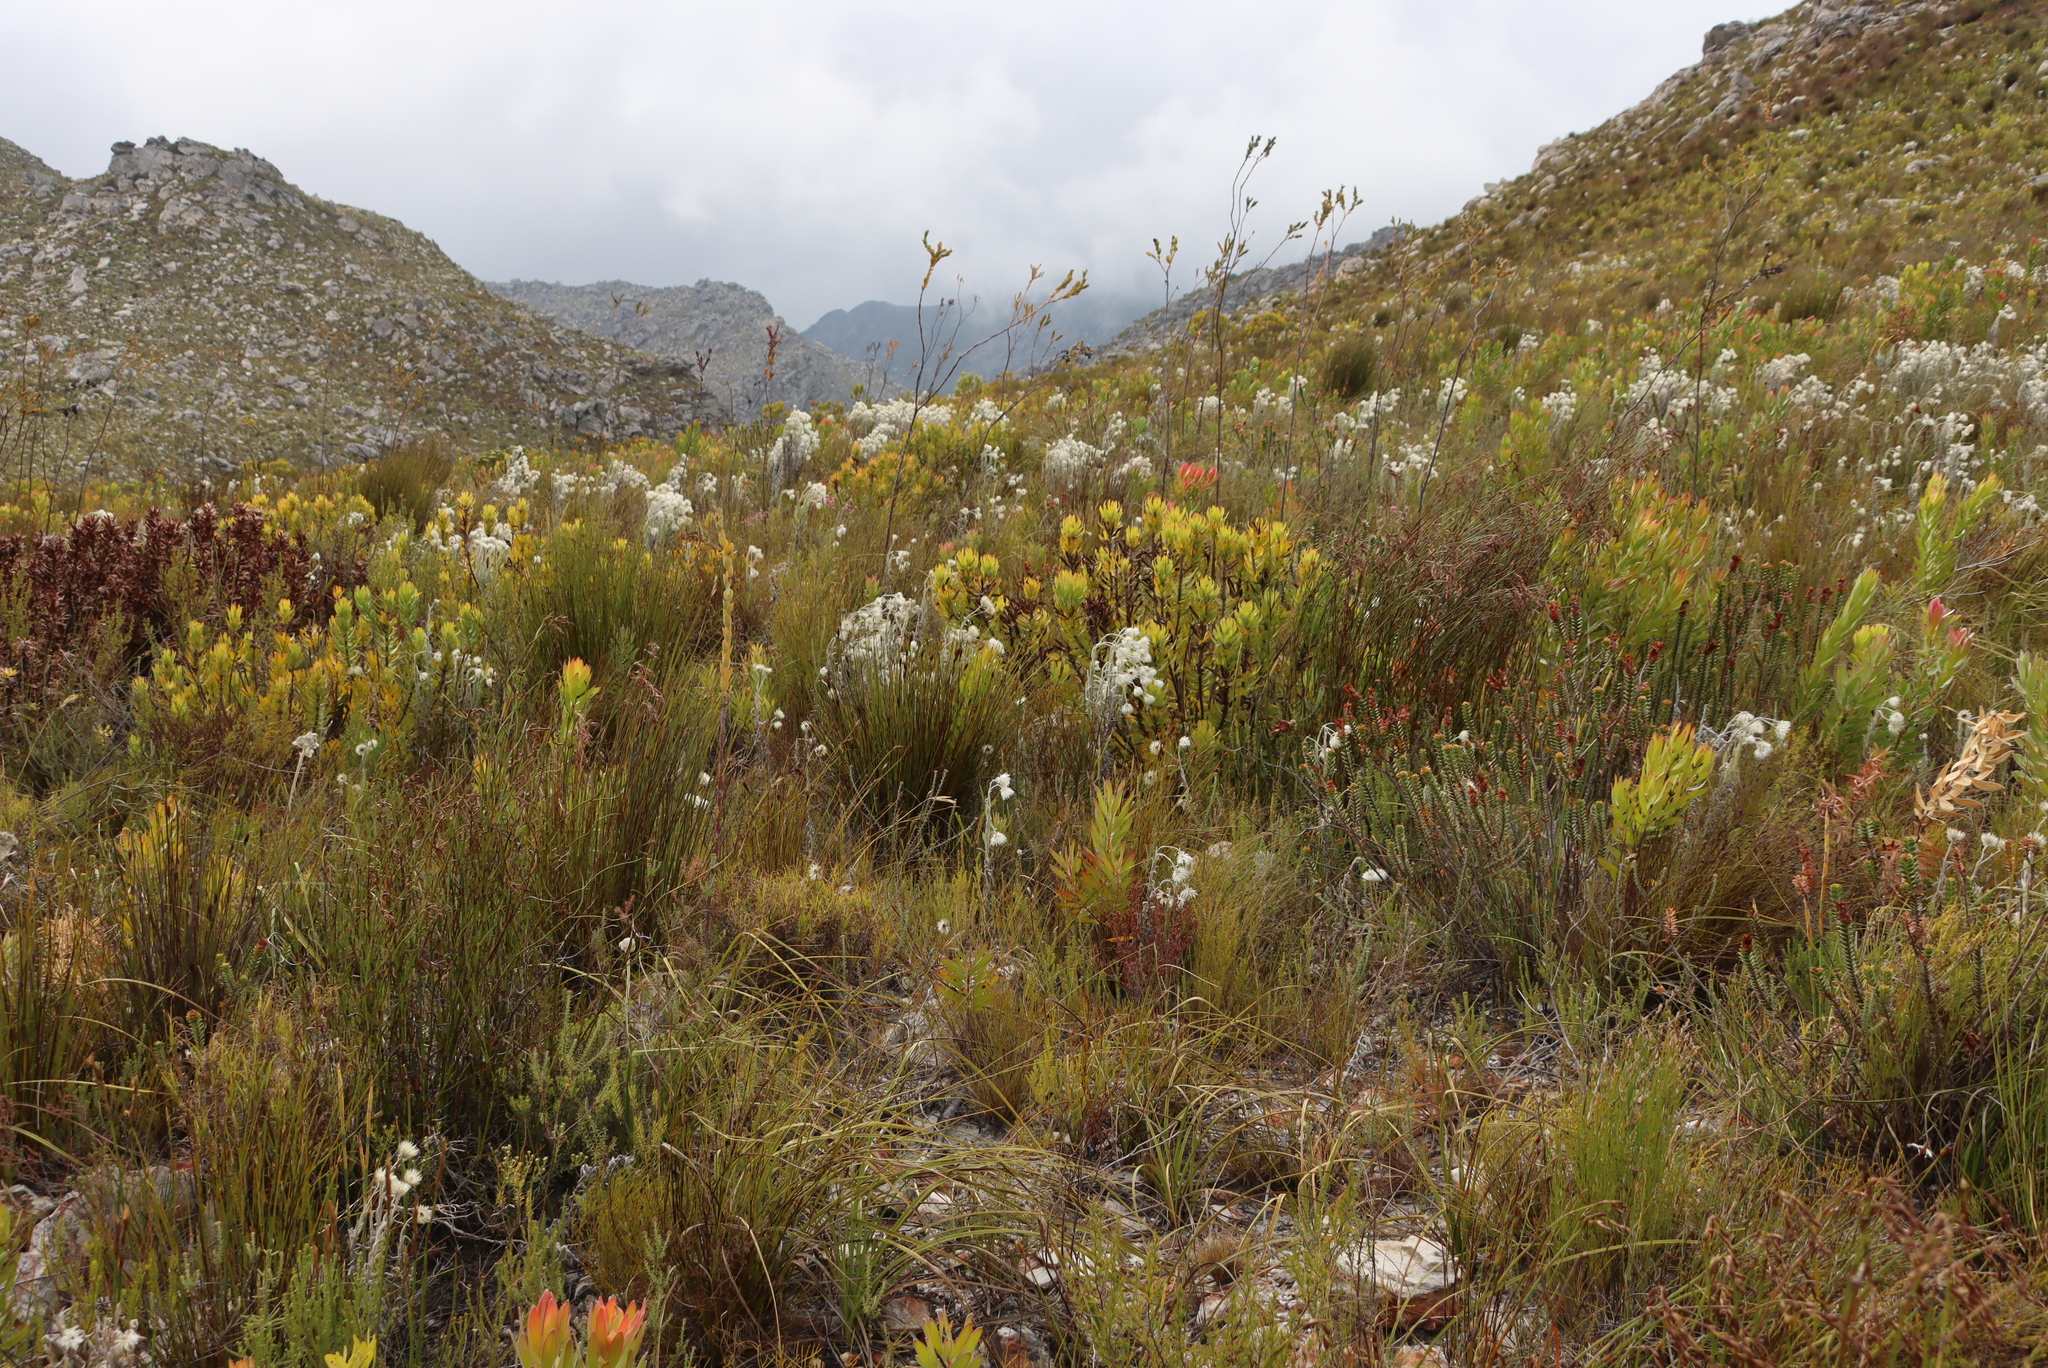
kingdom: Plantae
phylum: Tracheophyta
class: Magnoliopsida
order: Santalales
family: Thesiaceae
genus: Thesium
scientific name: Thesium euphorbioides
